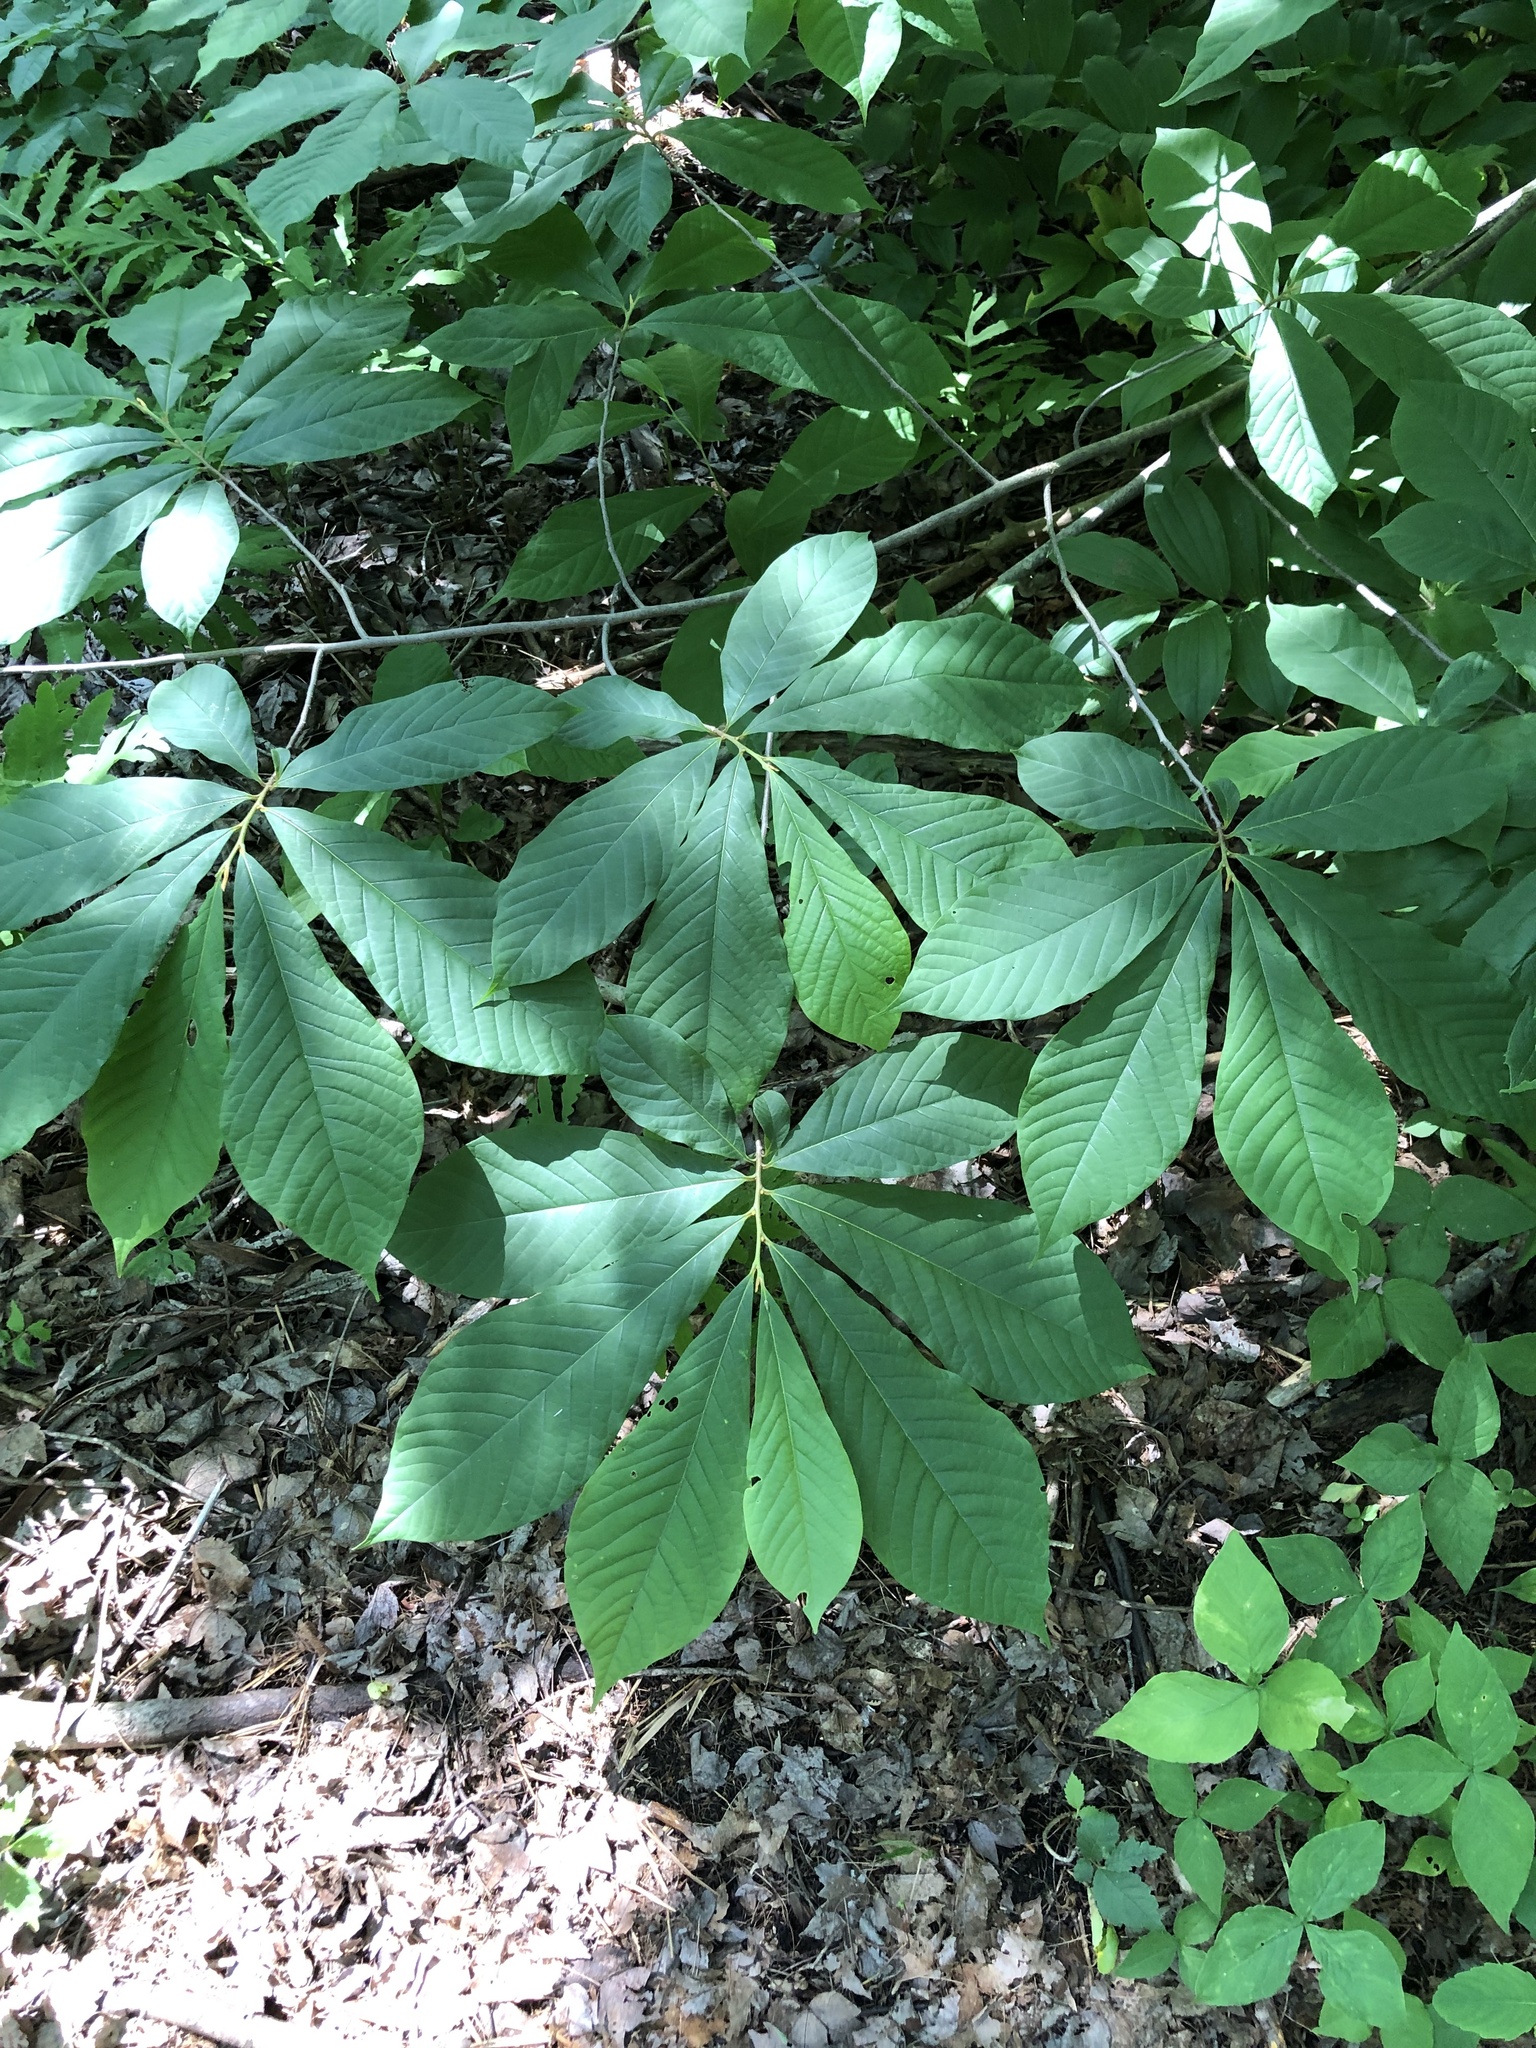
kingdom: Plantae
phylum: Tracheophyta
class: Magnoliopsida
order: Sapindales
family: Sapindaceae
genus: Aesculus
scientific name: Aesculus hippocastanum
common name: Horse-chestnut
